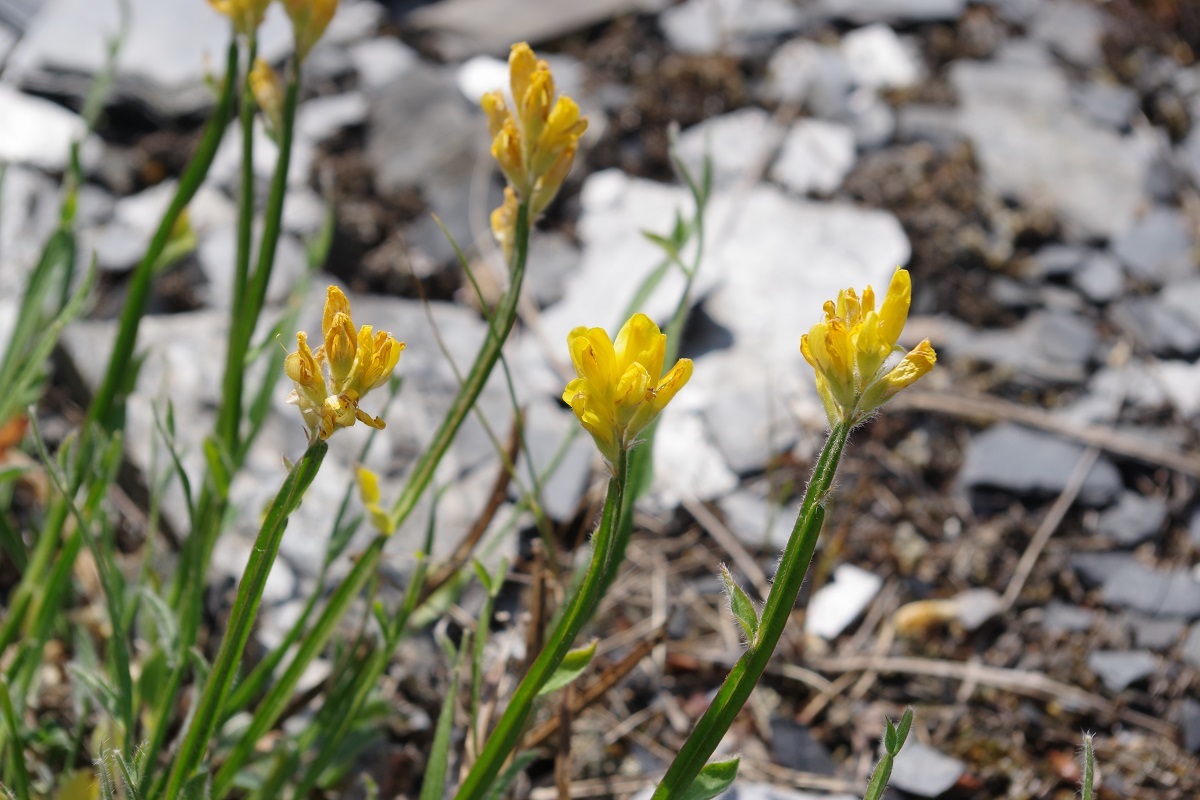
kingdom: Plantae
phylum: Tracheophyta
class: Magnoliopsida
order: Fabales
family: Fabaceae
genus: Genista
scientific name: Genista sagittalis
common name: Winged greenweed
